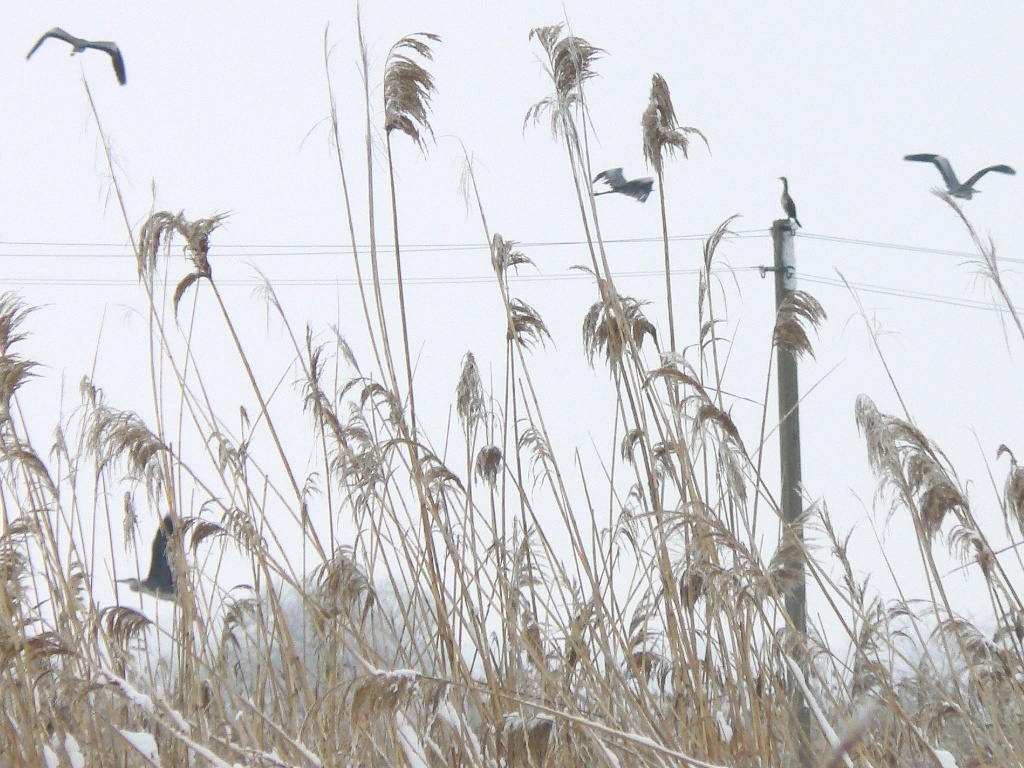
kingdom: Animalia
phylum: Chordata
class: Aves
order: Pelecaniformes
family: Ardeidae
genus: Ardea
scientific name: Ardea cinerea
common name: Grey heron
